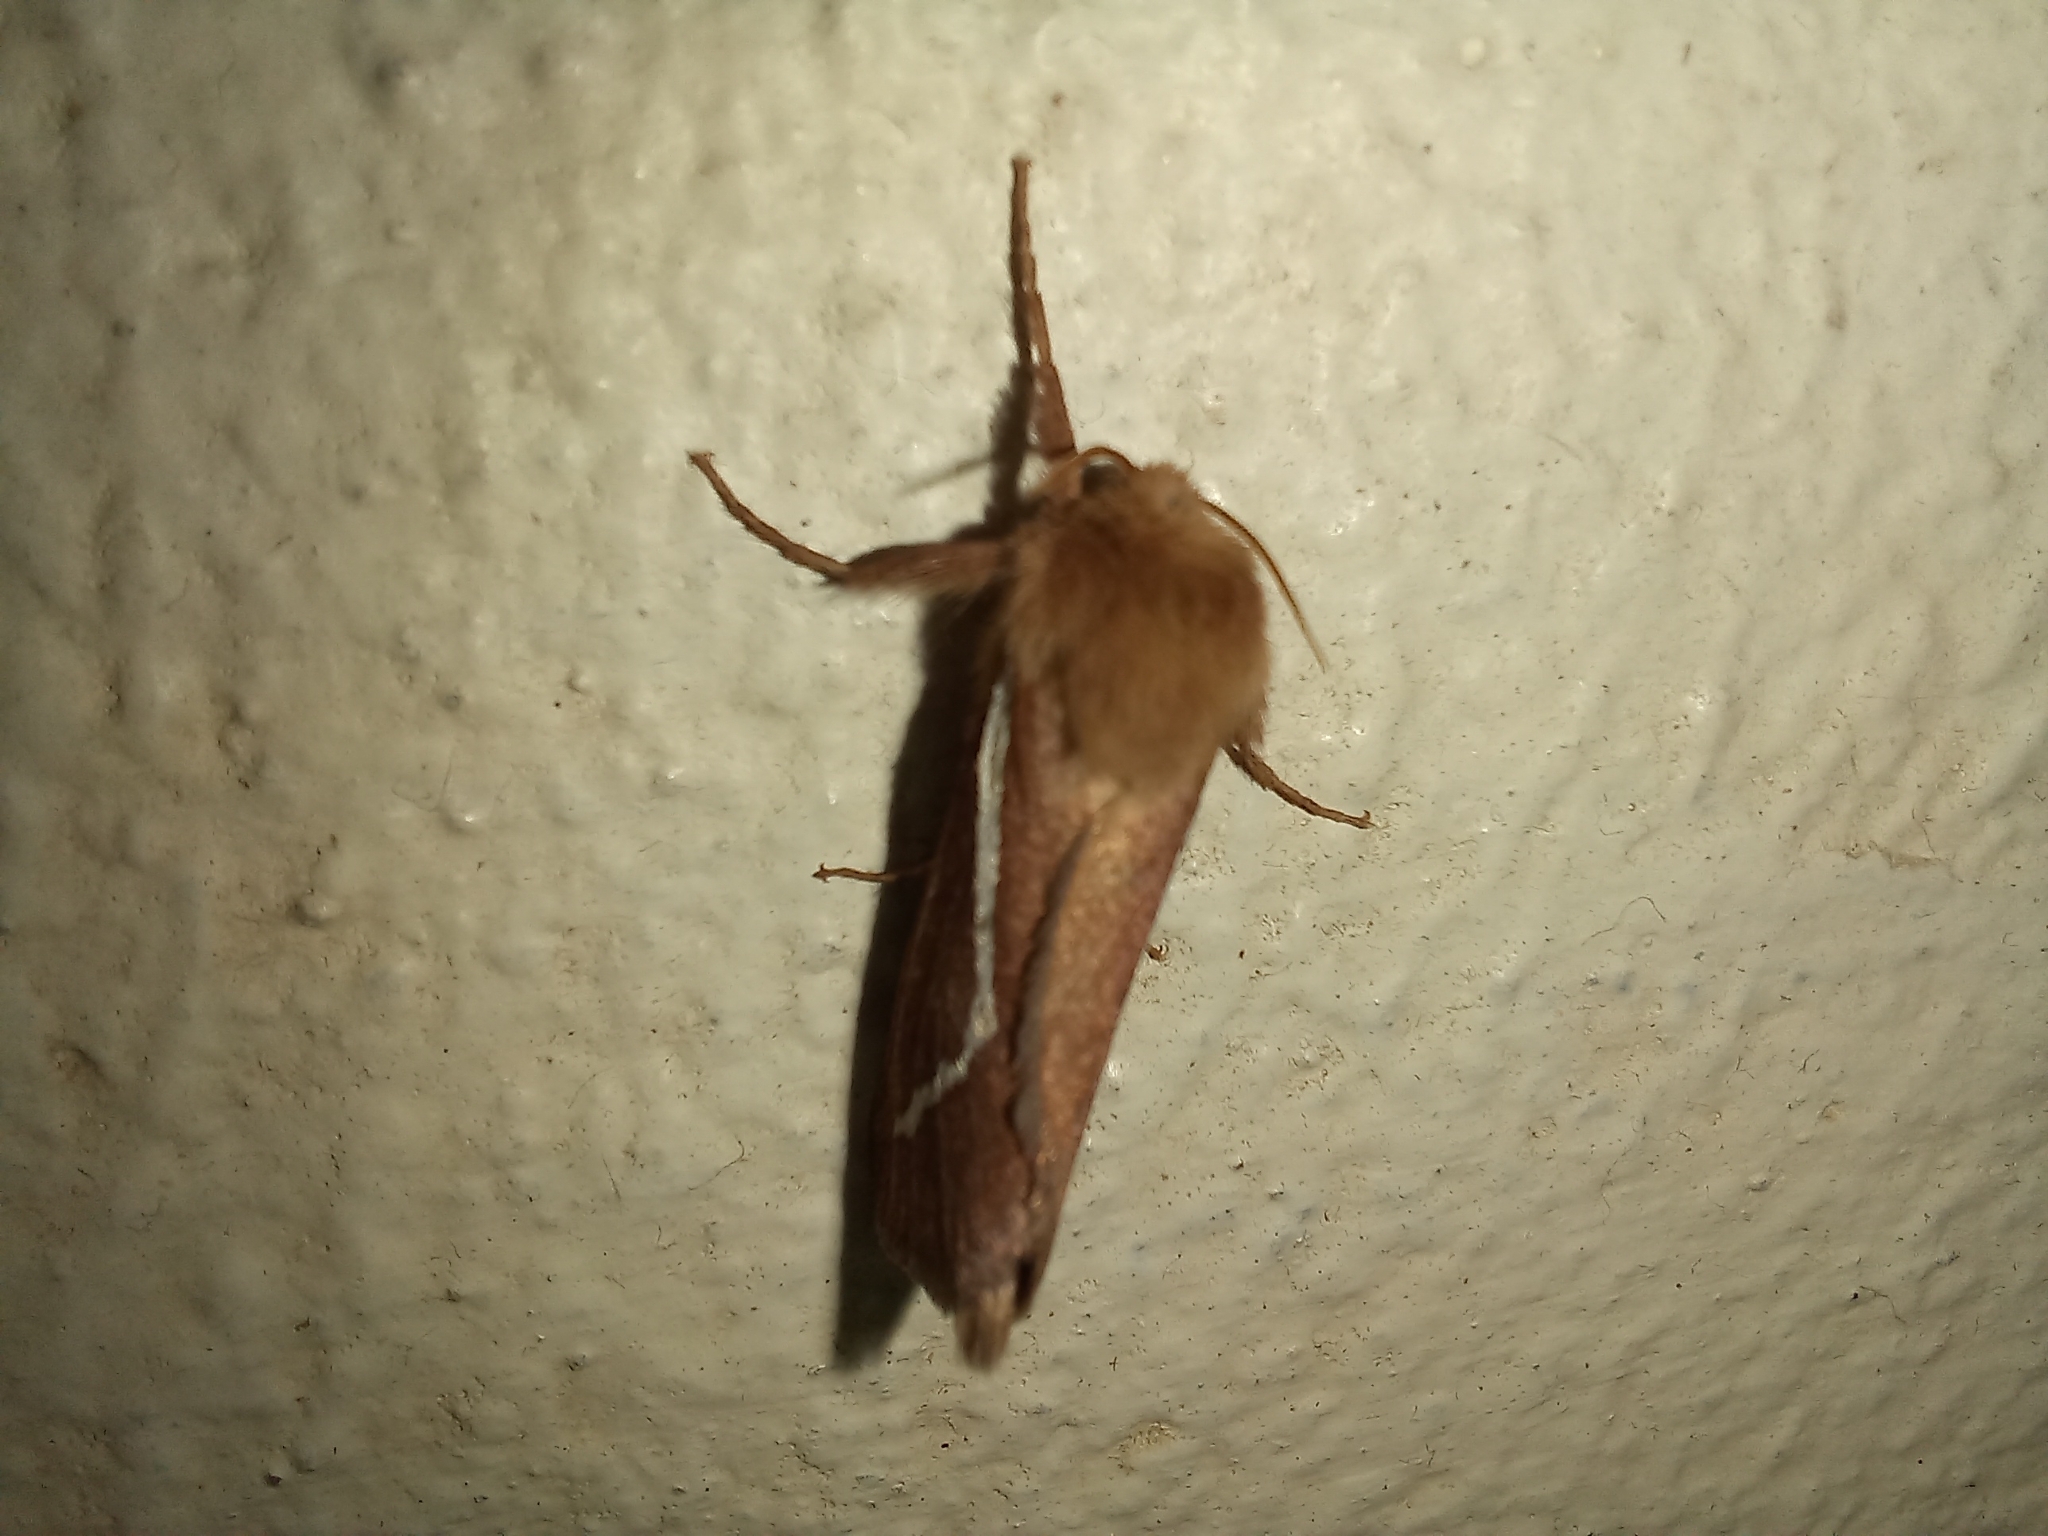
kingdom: Animalia
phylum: Arthropoda
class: Insecta
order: Lepidoptera
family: Hepialidae
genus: Eudalaca
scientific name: Eudalaca cretata
